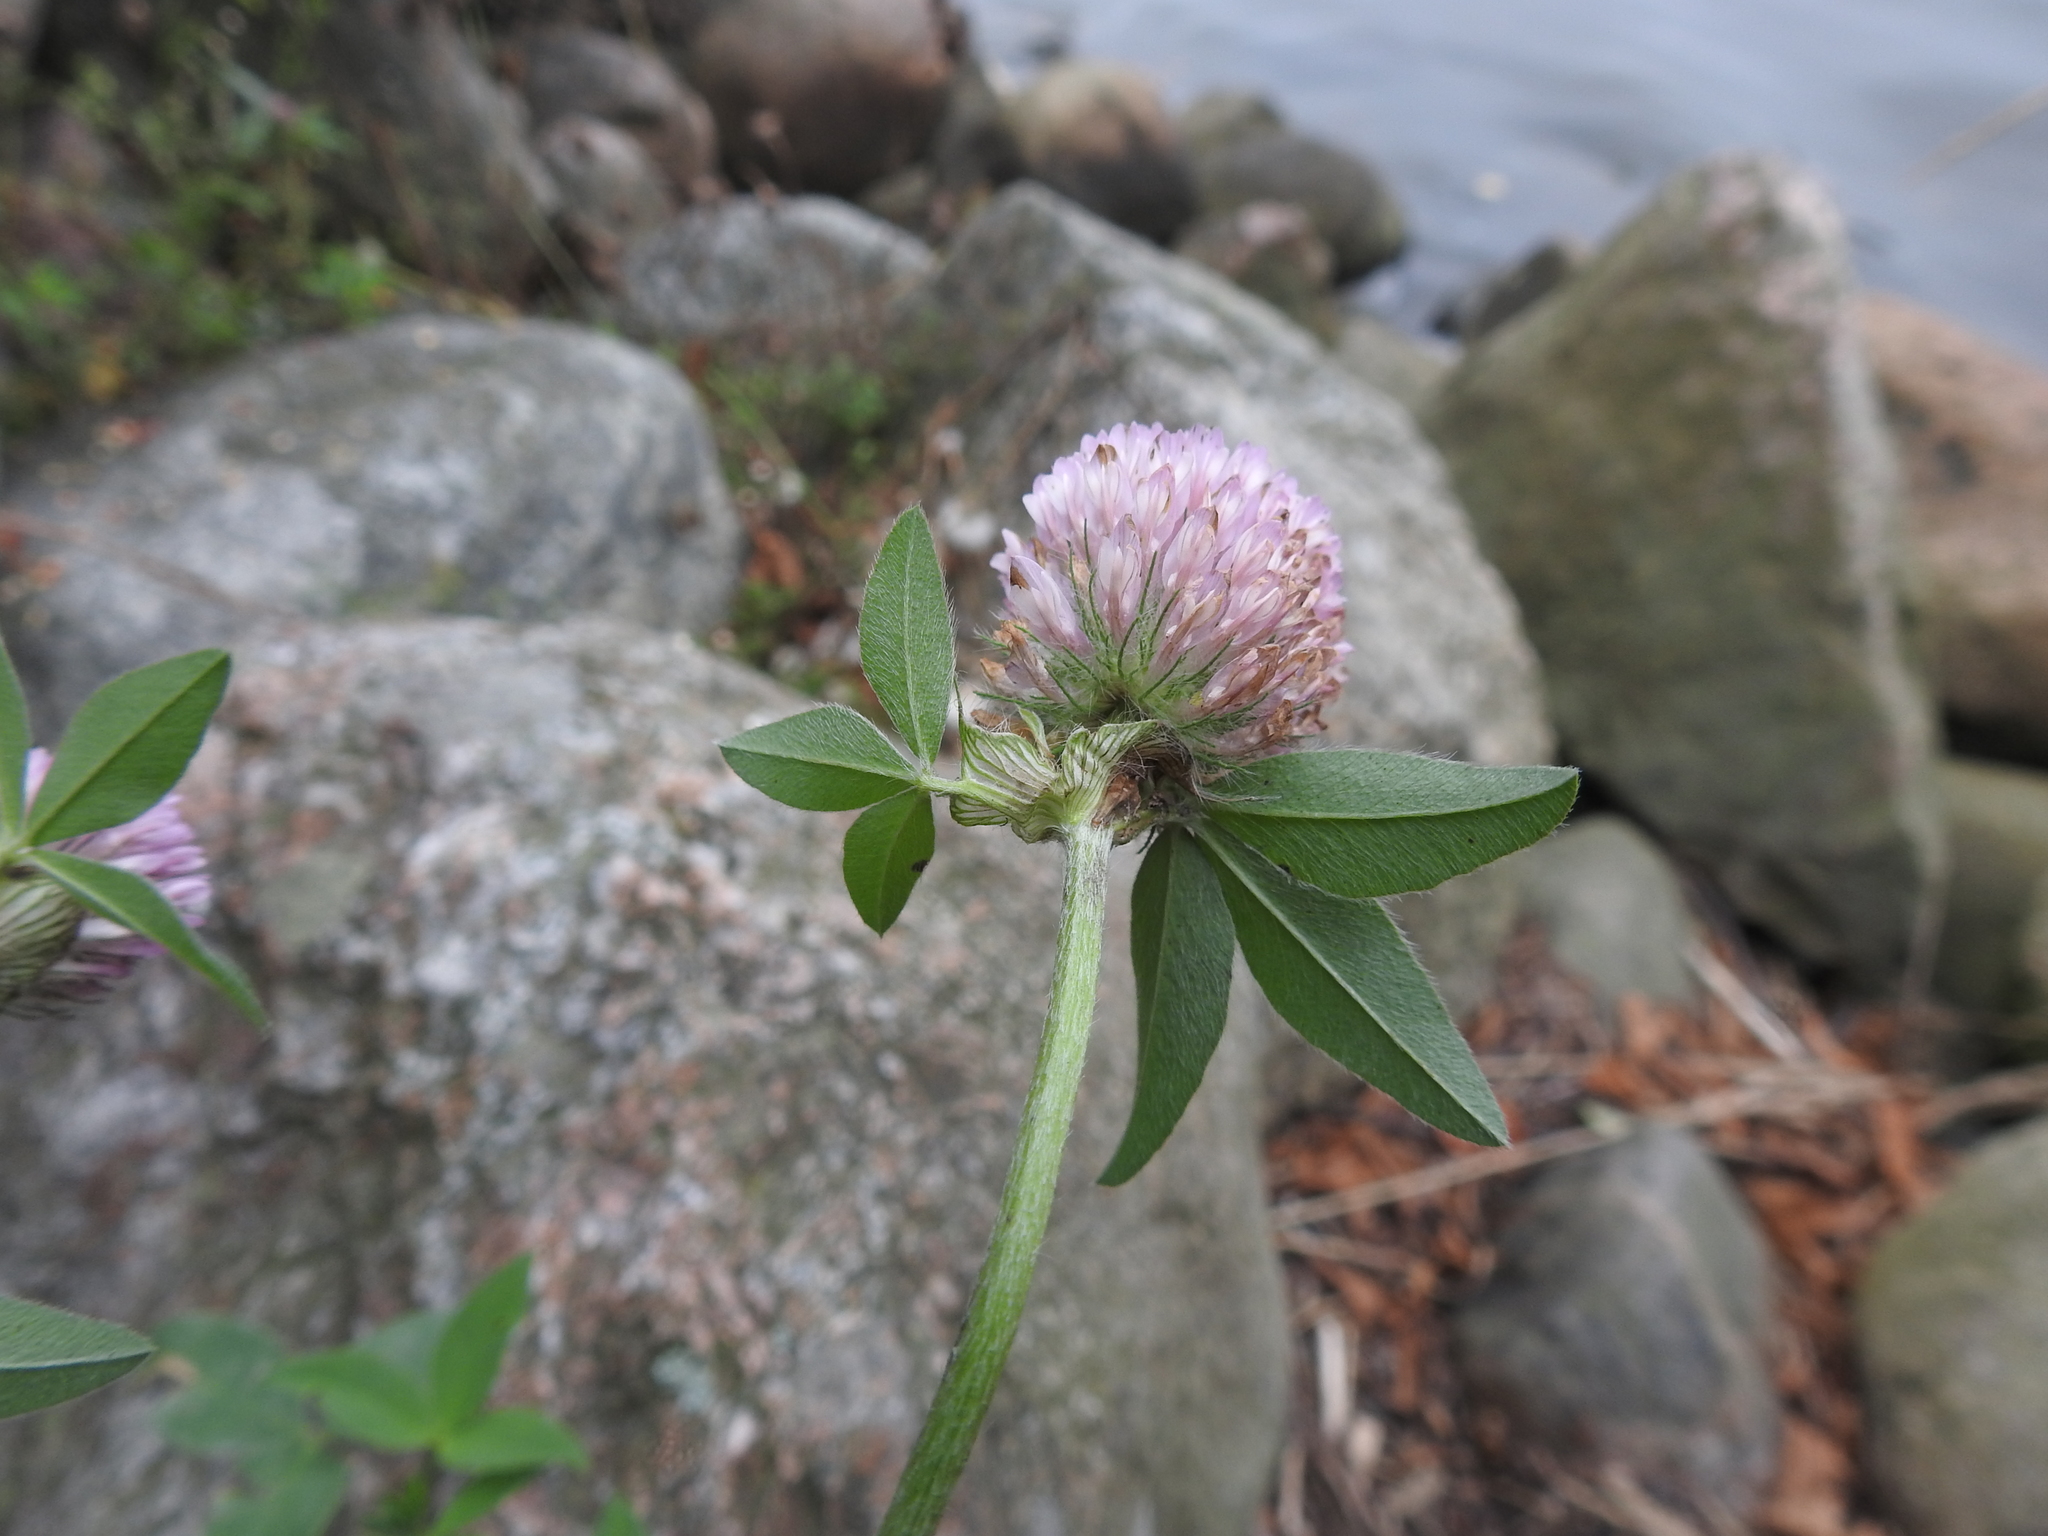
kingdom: Plantae
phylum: Tracheophyta
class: Magnoliopsida
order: Fabales
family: Fabaceae
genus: Trifolium
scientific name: Trifolium pratense
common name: Red clover
